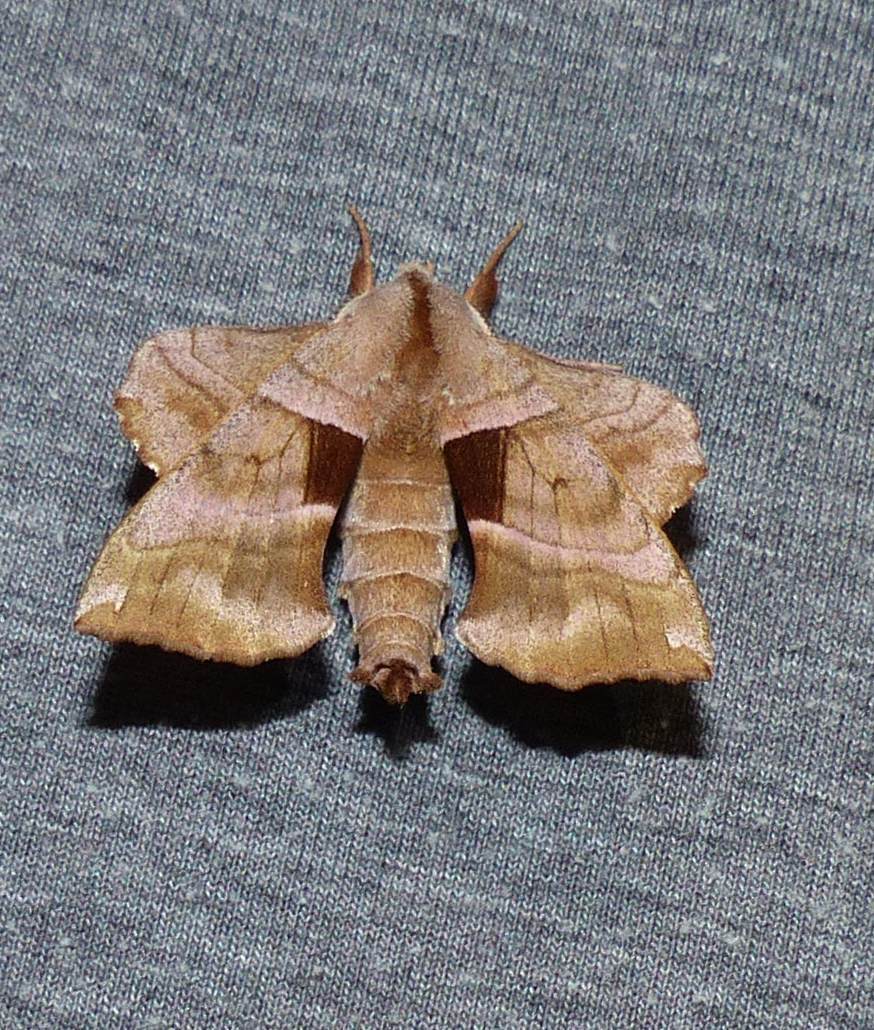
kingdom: Animalia
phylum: Arthropoda
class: Insecta
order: Lepidoptera
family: Sphingidae
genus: Amorpha
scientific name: Amorpha juglandis
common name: Walnut sphinx
